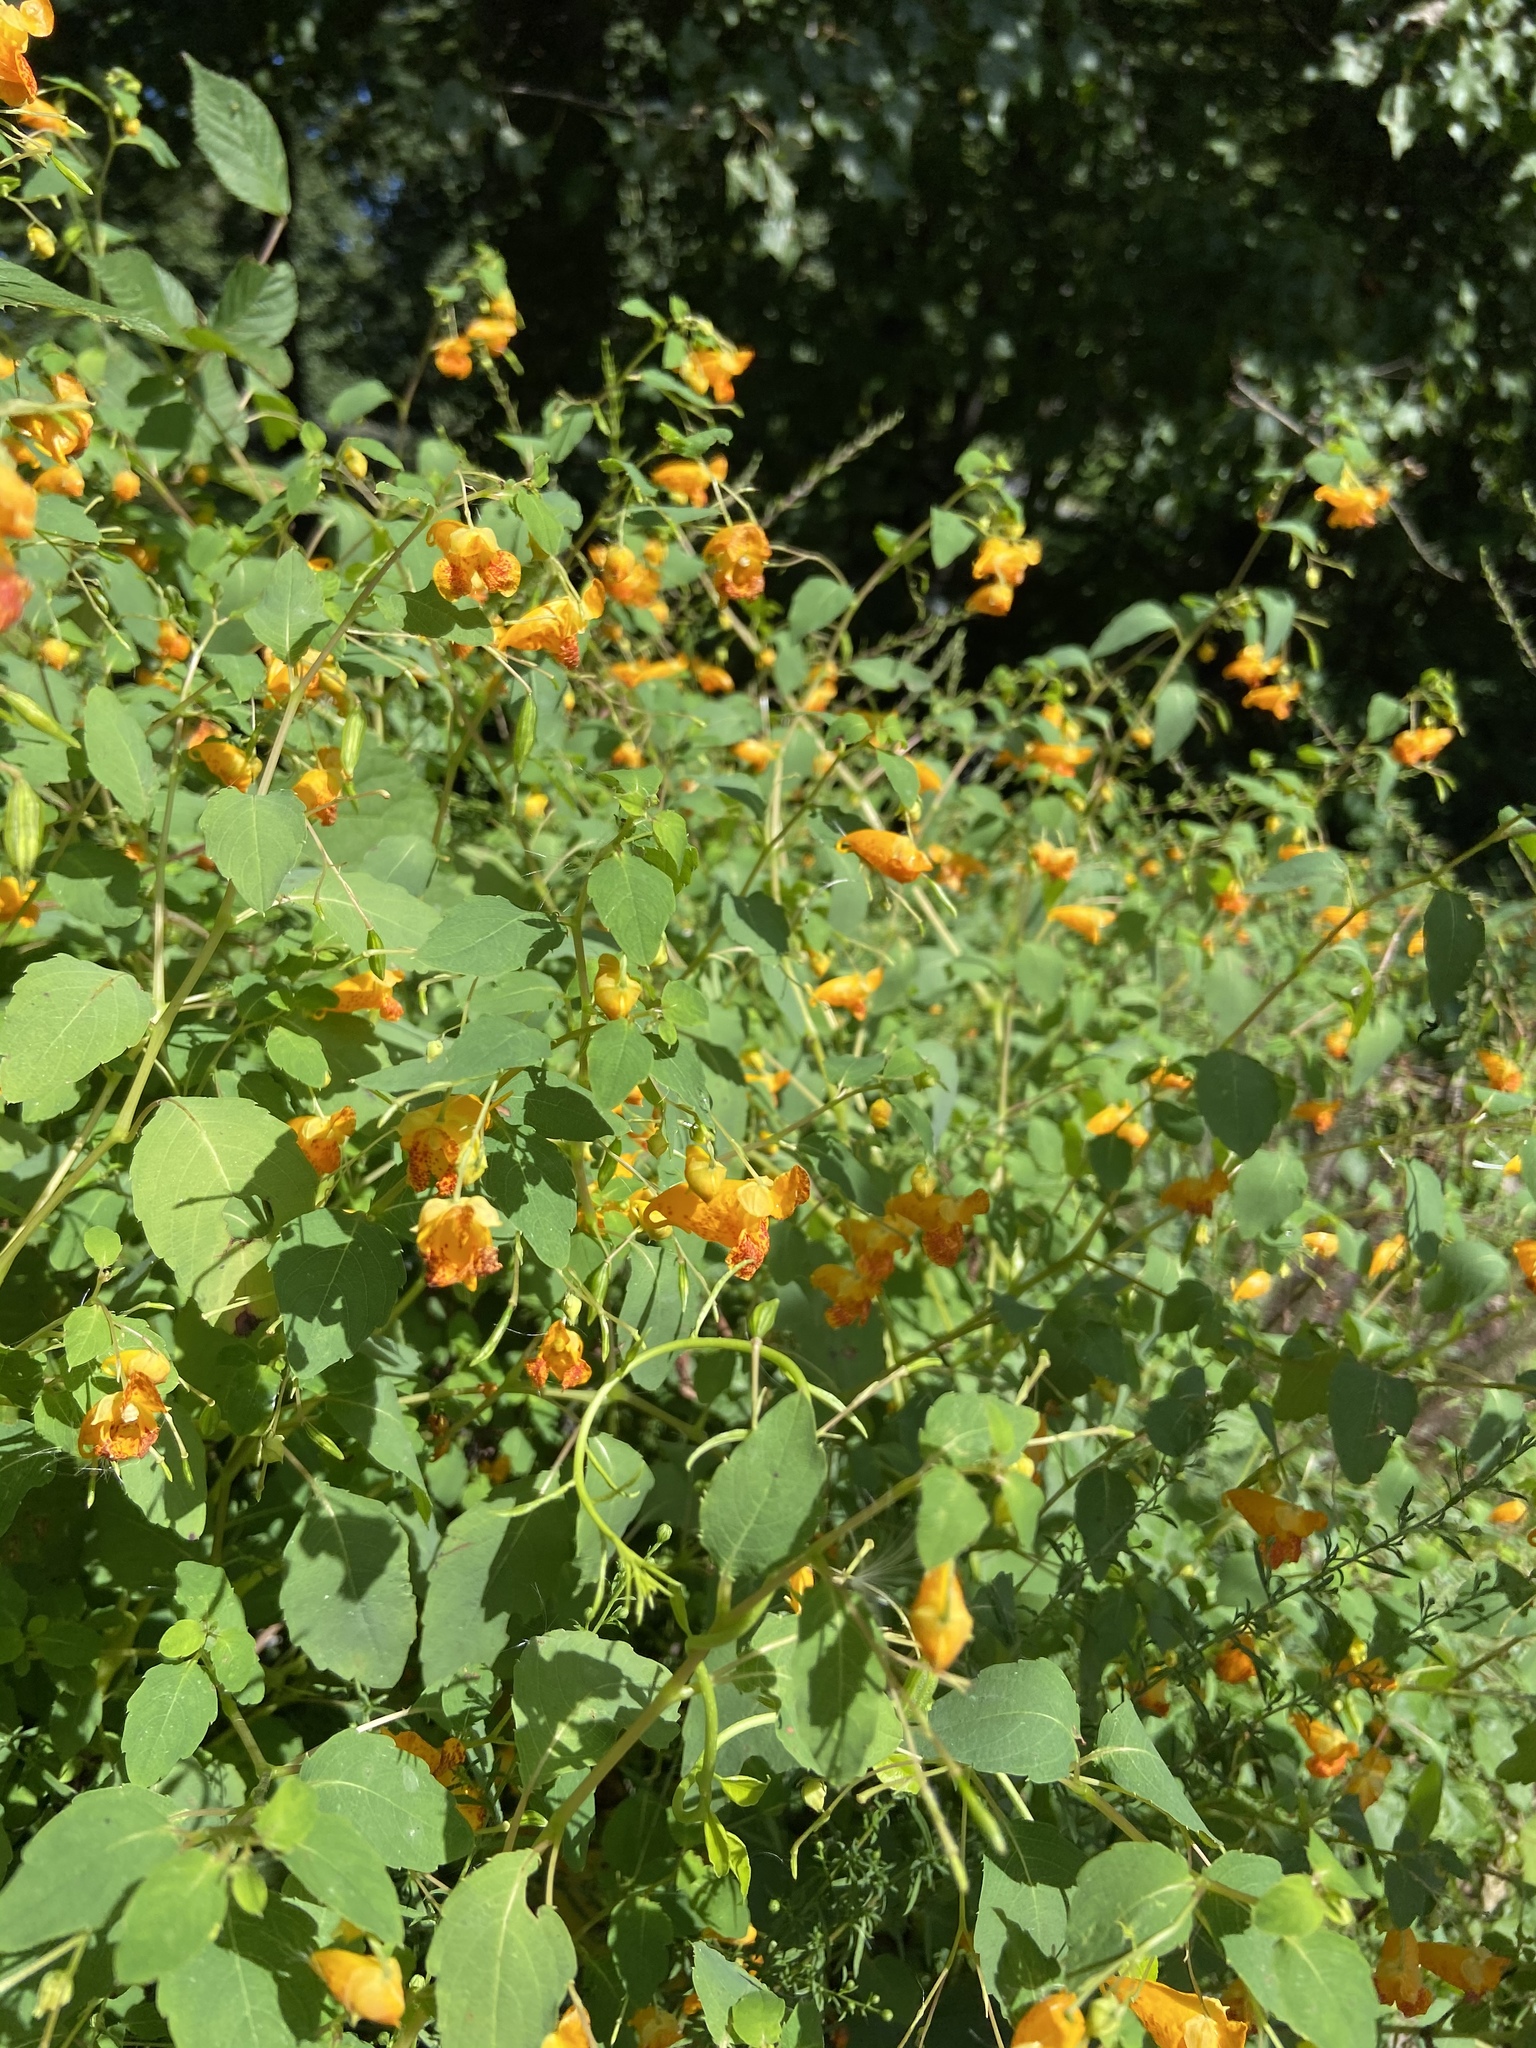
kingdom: Plantae
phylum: Tracheophyta
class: Magnoliopsida
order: Ericales
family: Balsaminaceae
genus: Impatiens
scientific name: Impatiens capensis
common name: Orange balsam
